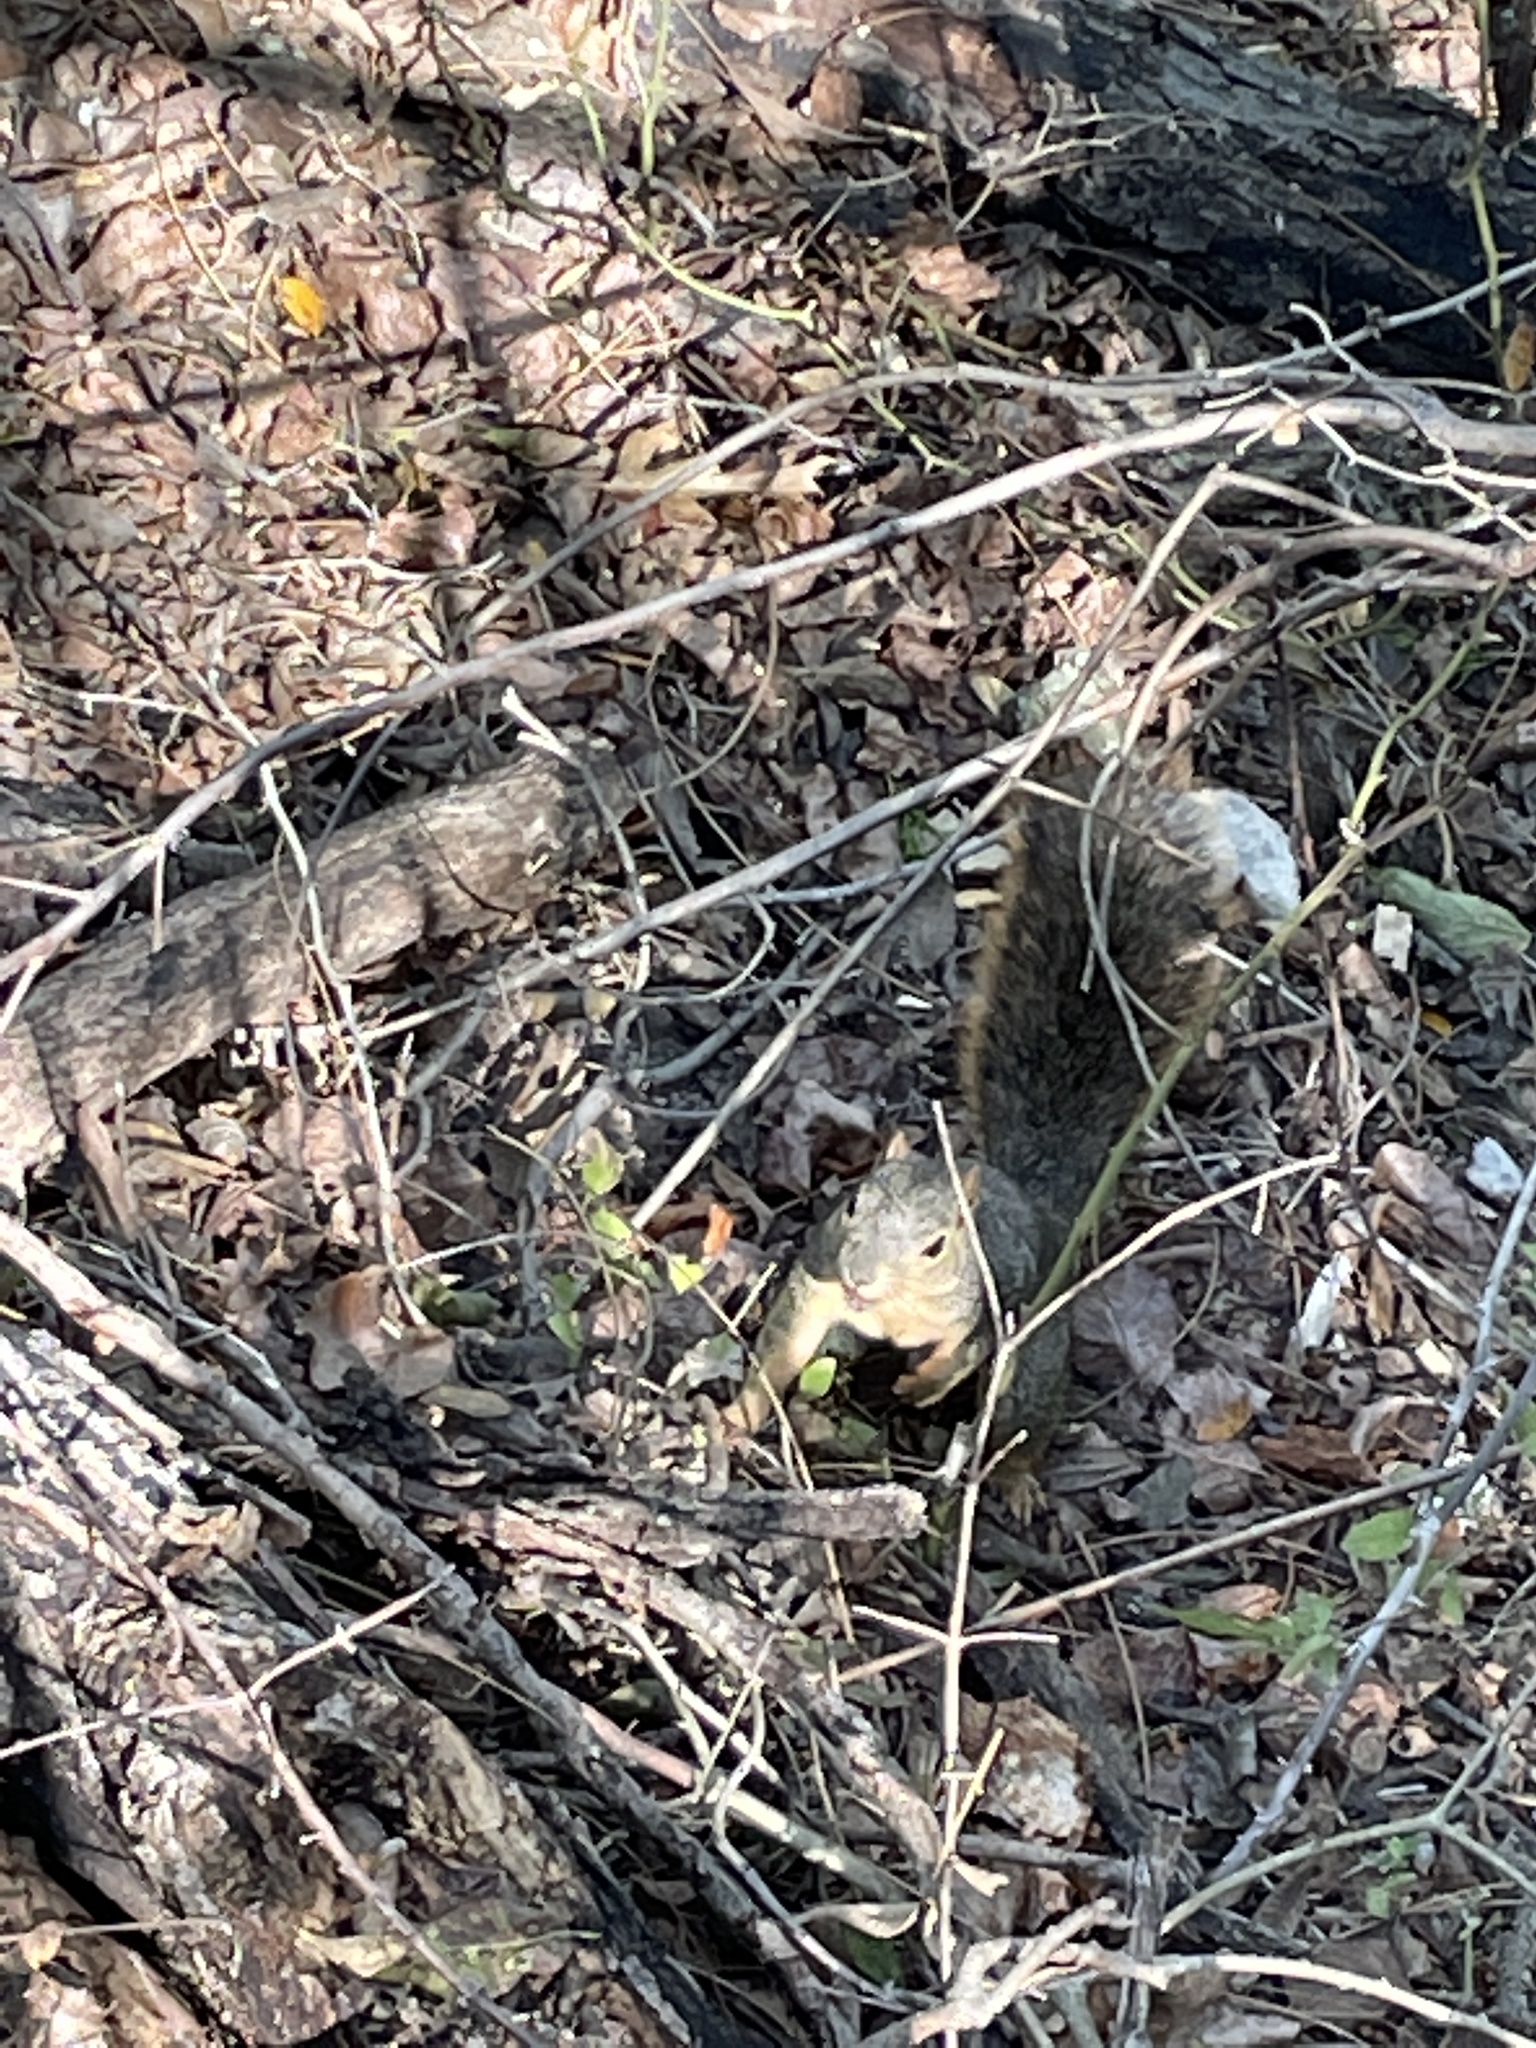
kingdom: Animalia
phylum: Chordata
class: Mammalia
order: Rodentia
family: Sciuridae
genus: Sciurus
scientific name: Sciurus niger
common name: Fox squirrel
